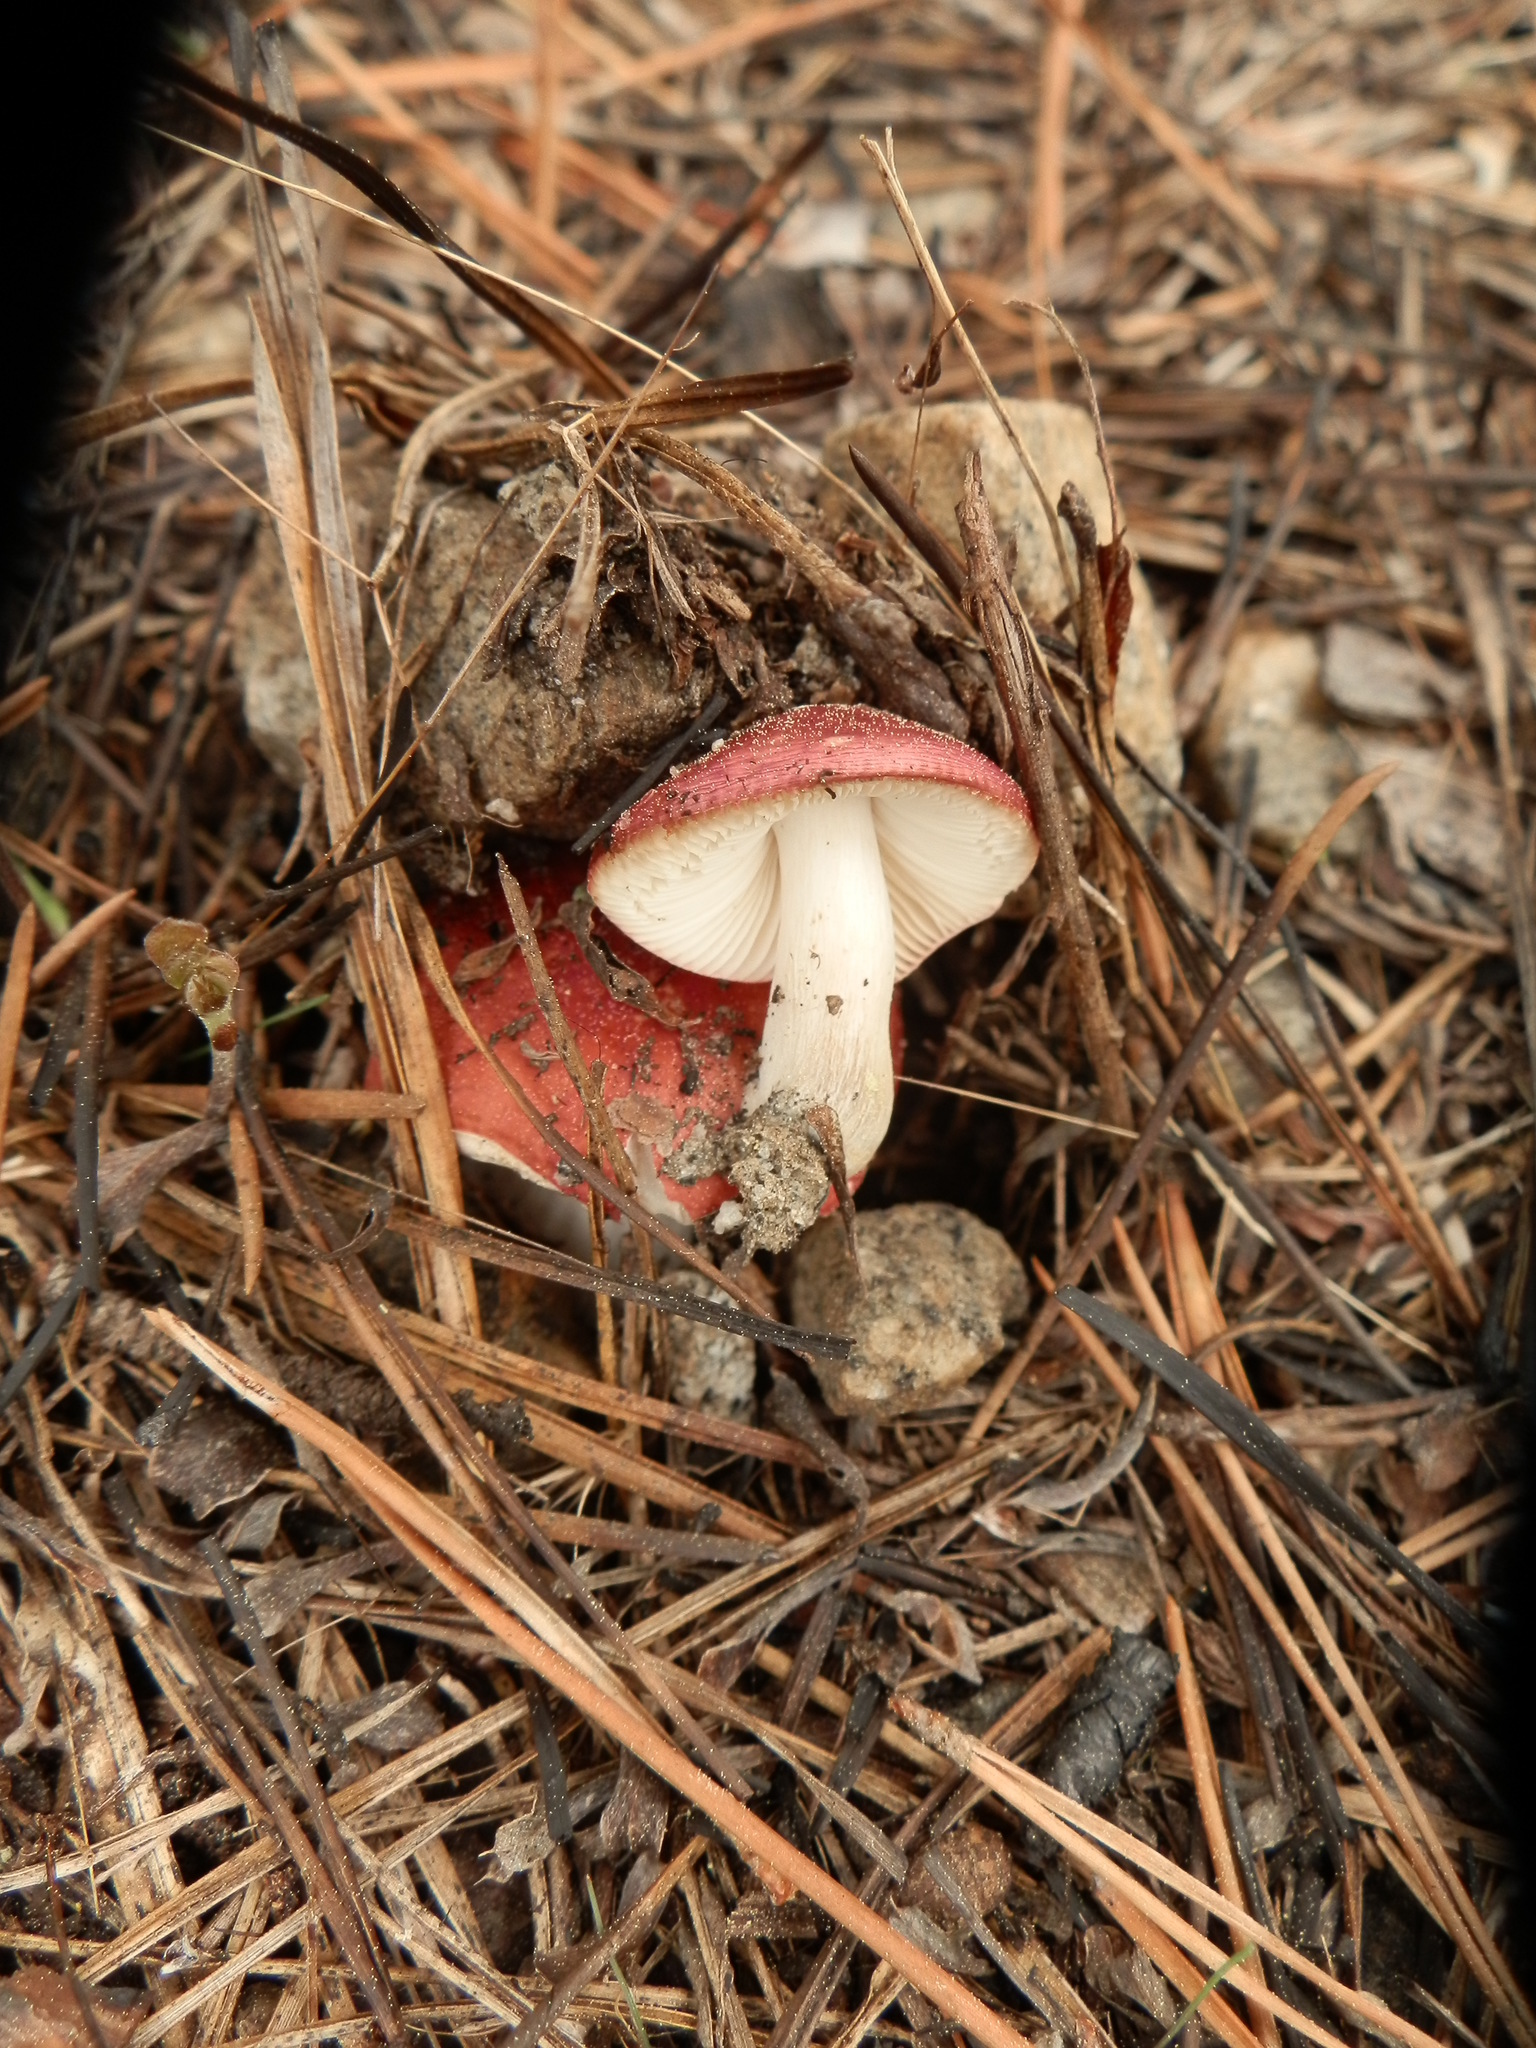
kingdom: Fungi
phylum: Basidiomycota
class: Agaricomycetes
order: Russulales
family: Russulaceae
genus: Russula
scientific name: Russula cessans
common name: Tardy brittlegill
